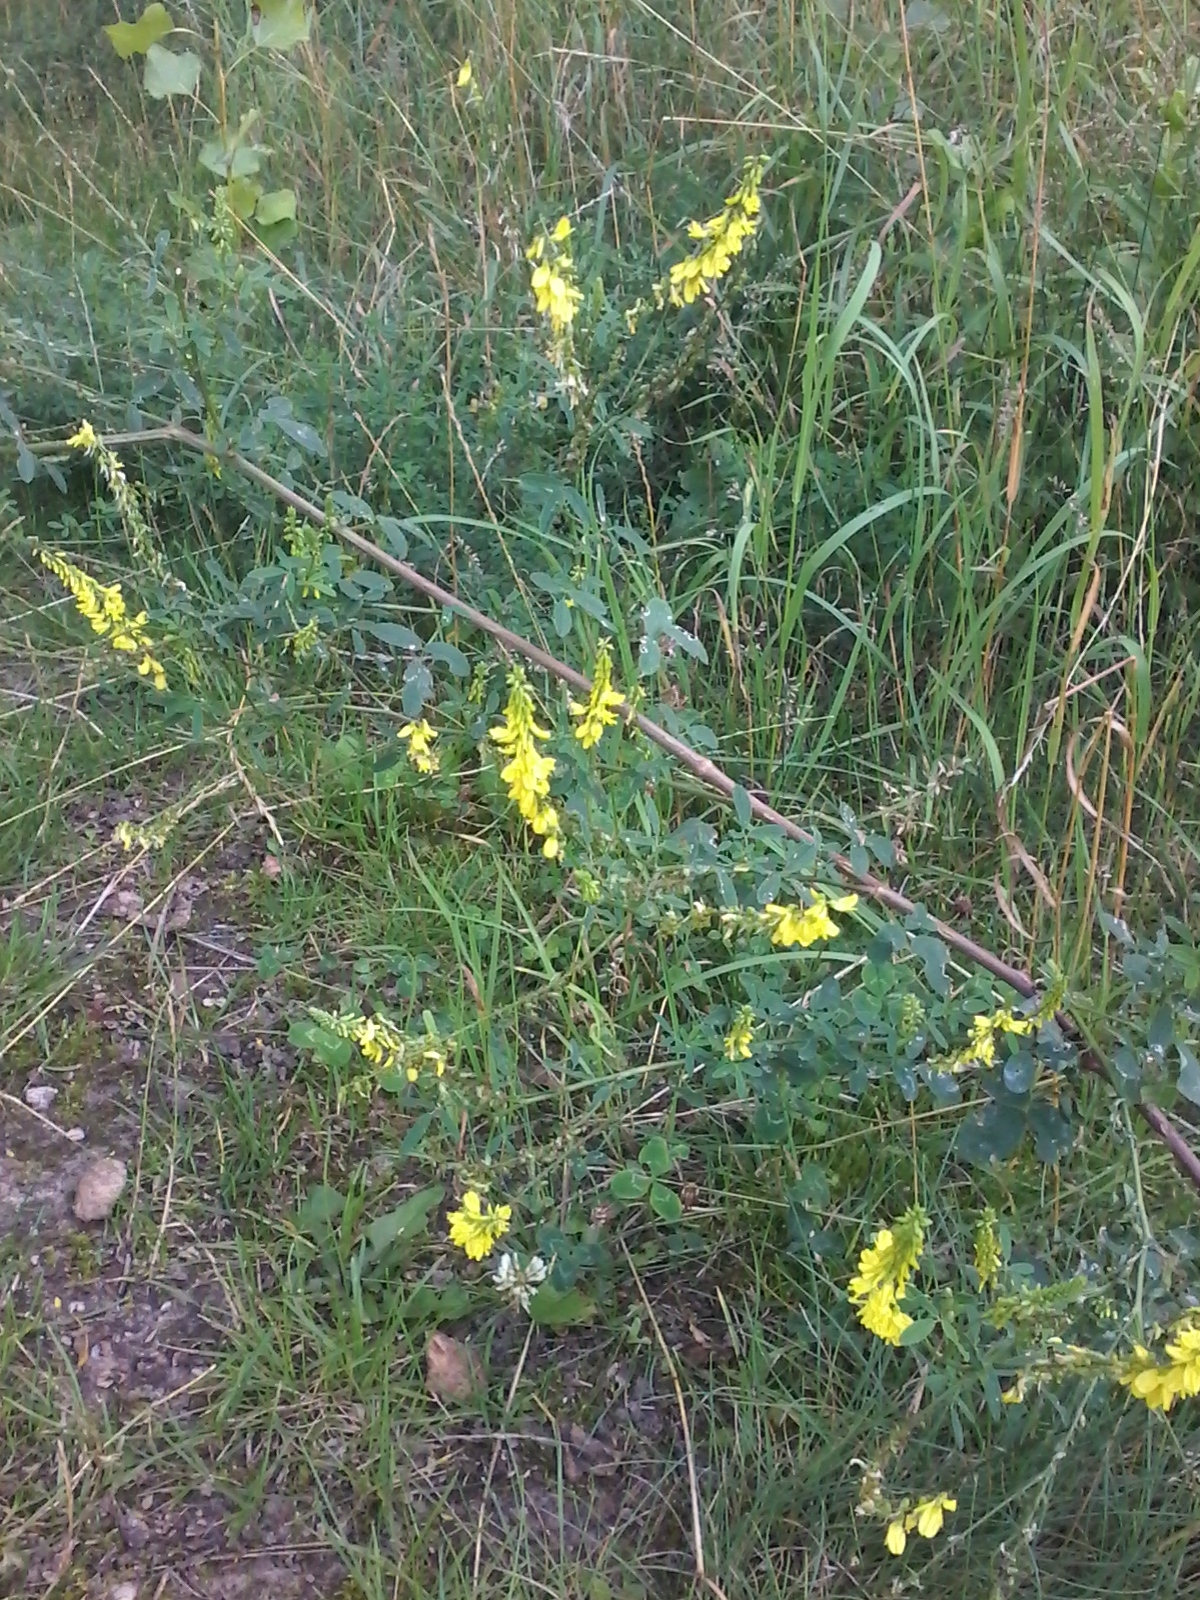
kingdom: Plantae
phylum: Tracheophyta
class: Magnoliopsida
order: Fabales
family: Fabaceae
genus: Melilotus
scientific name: Melilotus officinalis
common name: Sweetclover
